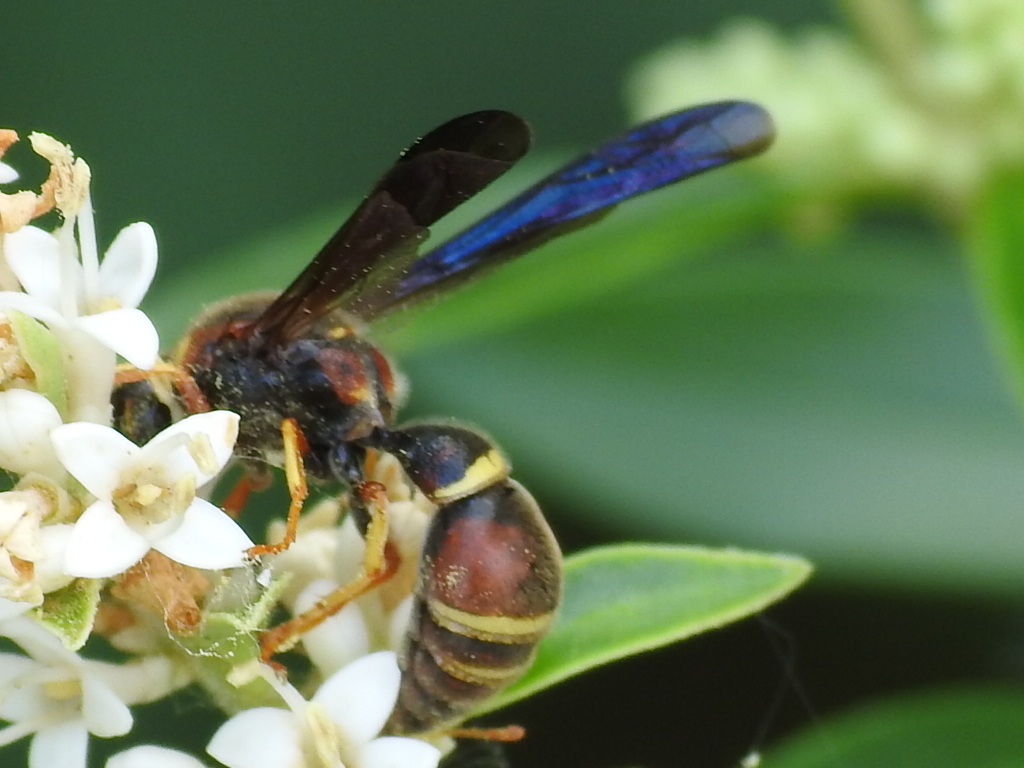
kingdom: Animalia
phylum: Arthropoda
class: Insecta
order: Hymenoptera
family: Eumenidae
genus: Parazumia
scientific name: Parazumia tolteca
